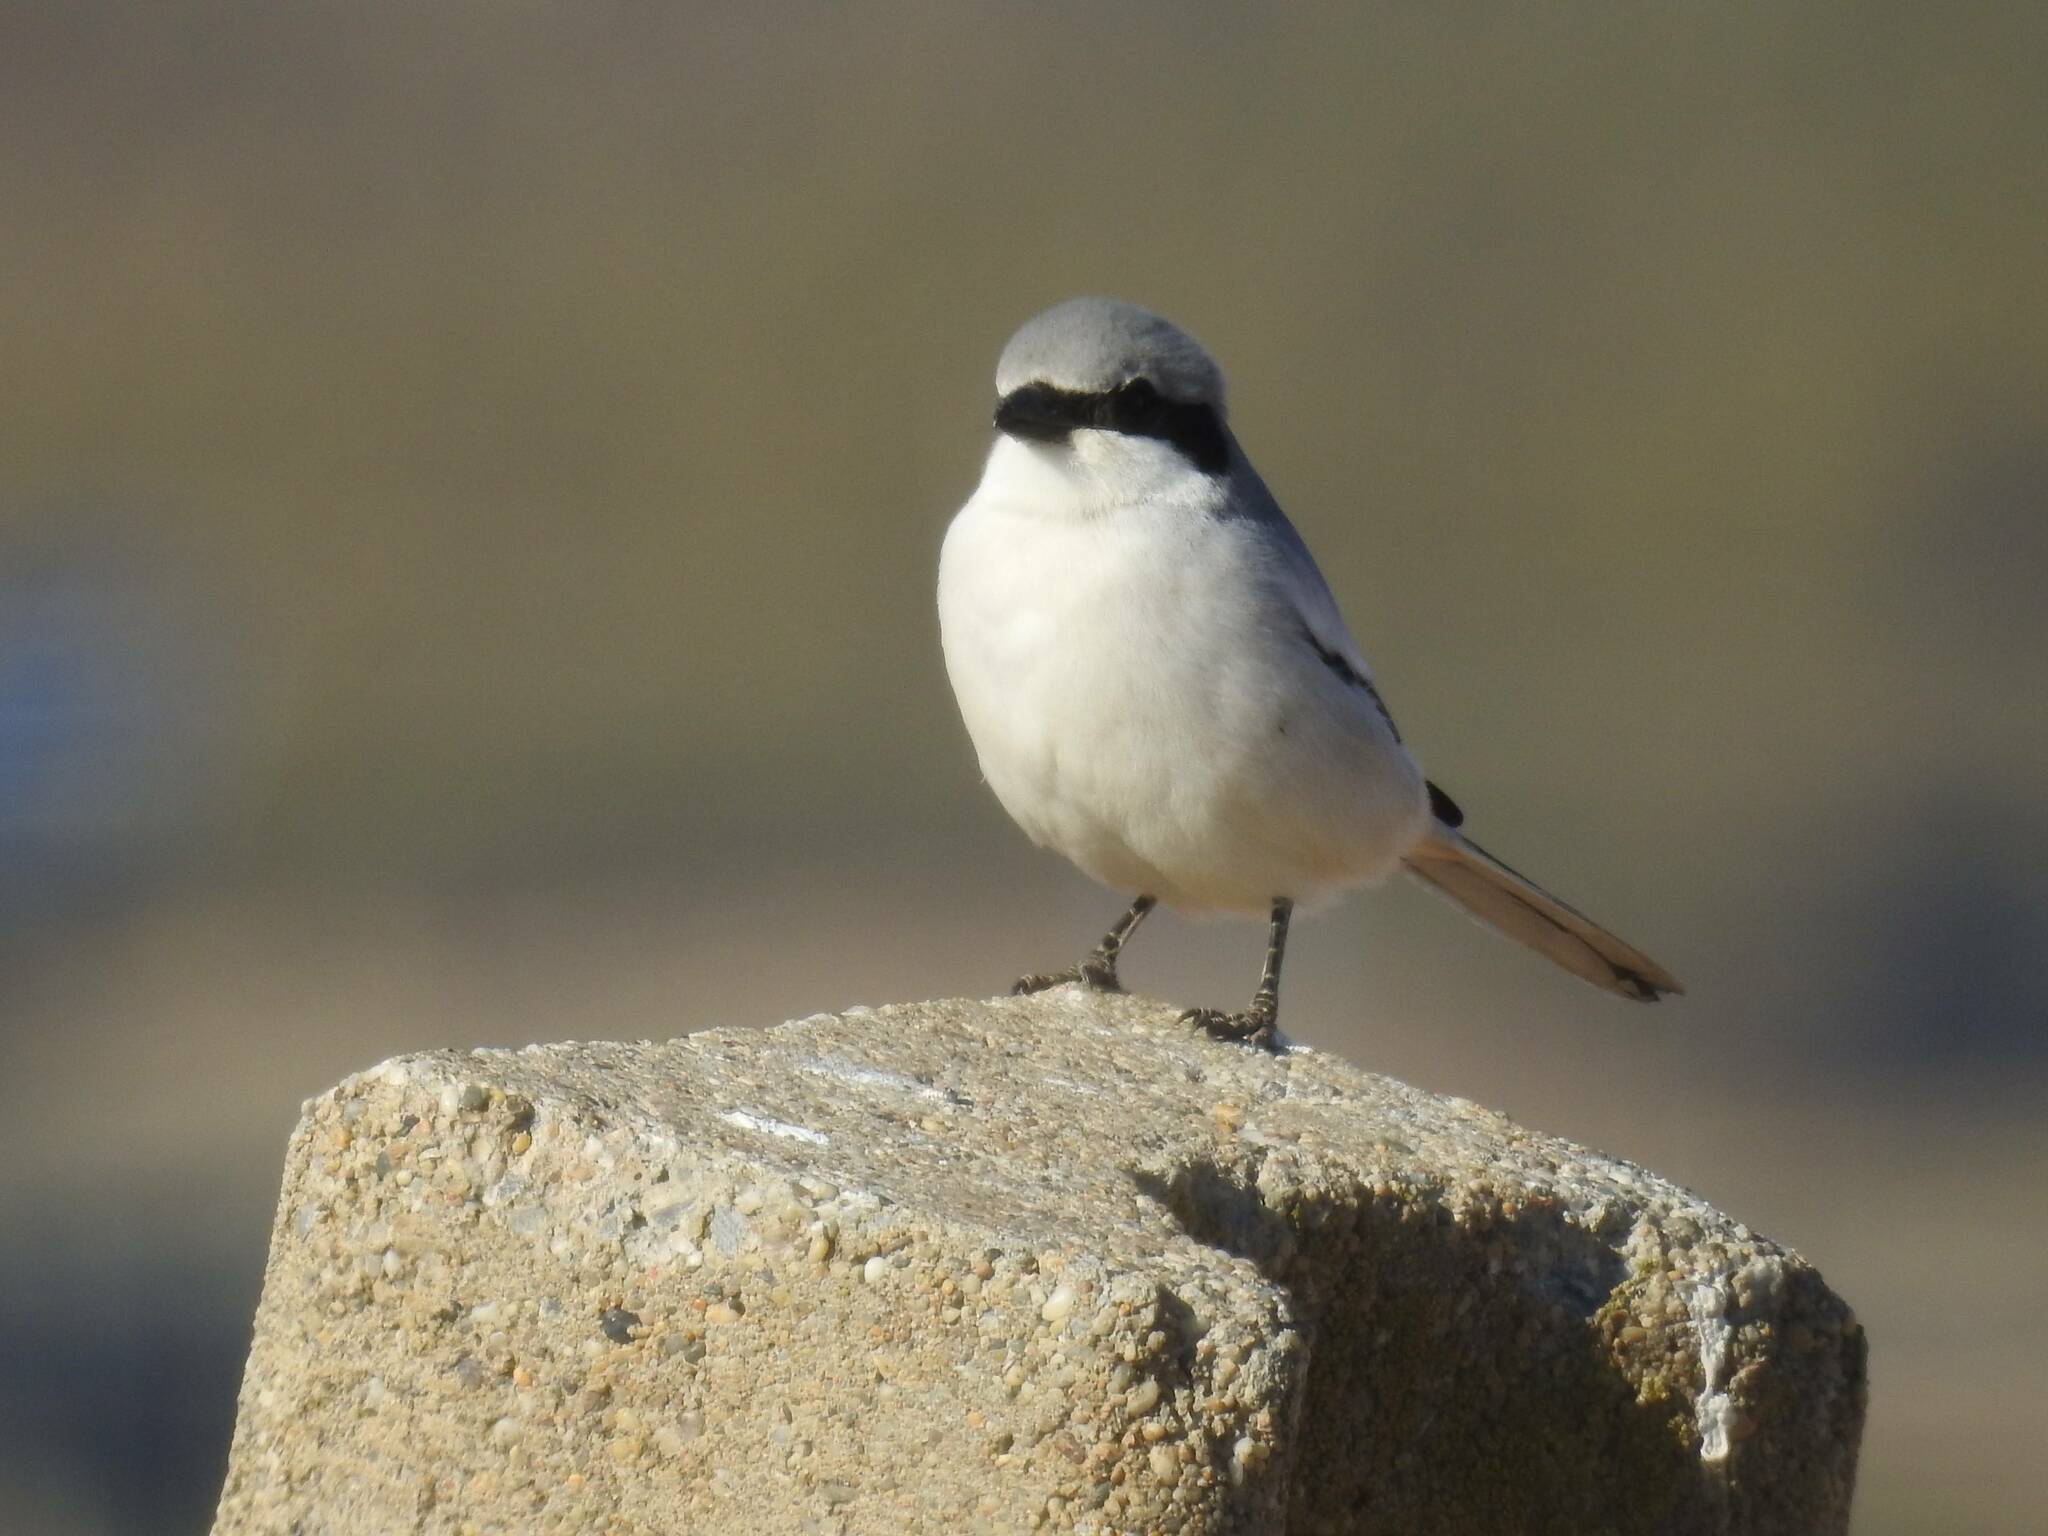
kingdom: Animalia
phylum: Chordata
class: Aves
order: Passeriformes
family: Laniidae
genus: Lanius
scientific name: Lanius excubitor
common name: Great grey shrike
